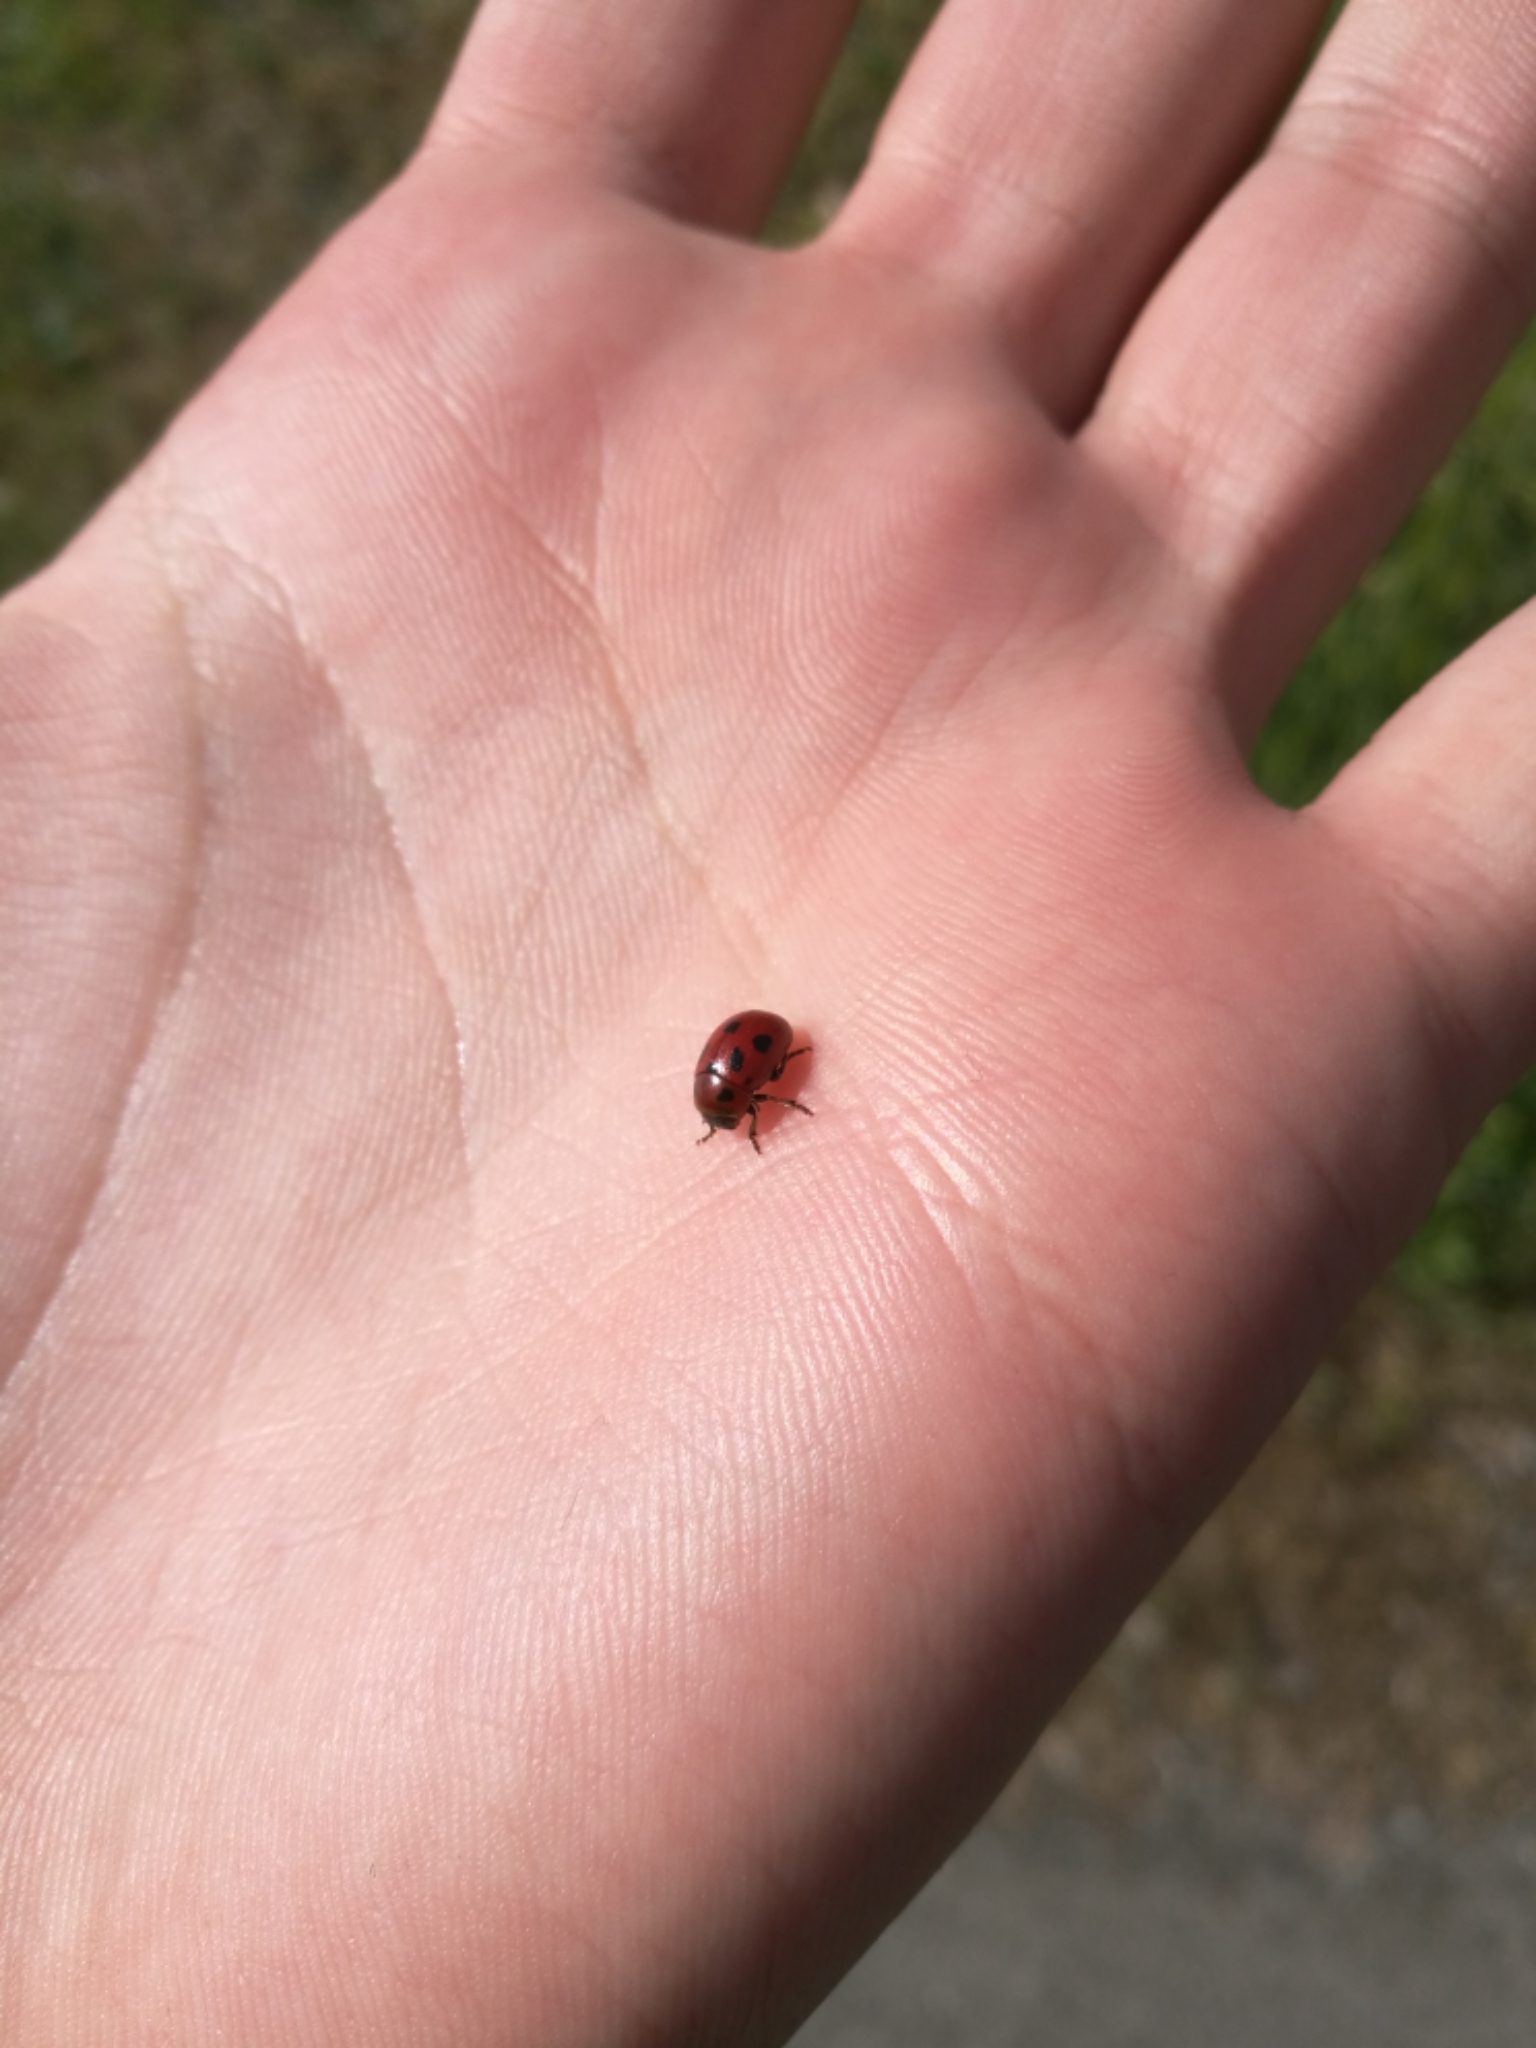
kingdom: Animalia
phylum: Arthropoda
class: Insecta
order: Coleoptera
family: Chrysomelidae
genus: Gonioctena
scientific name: Gonioctena fornicata
